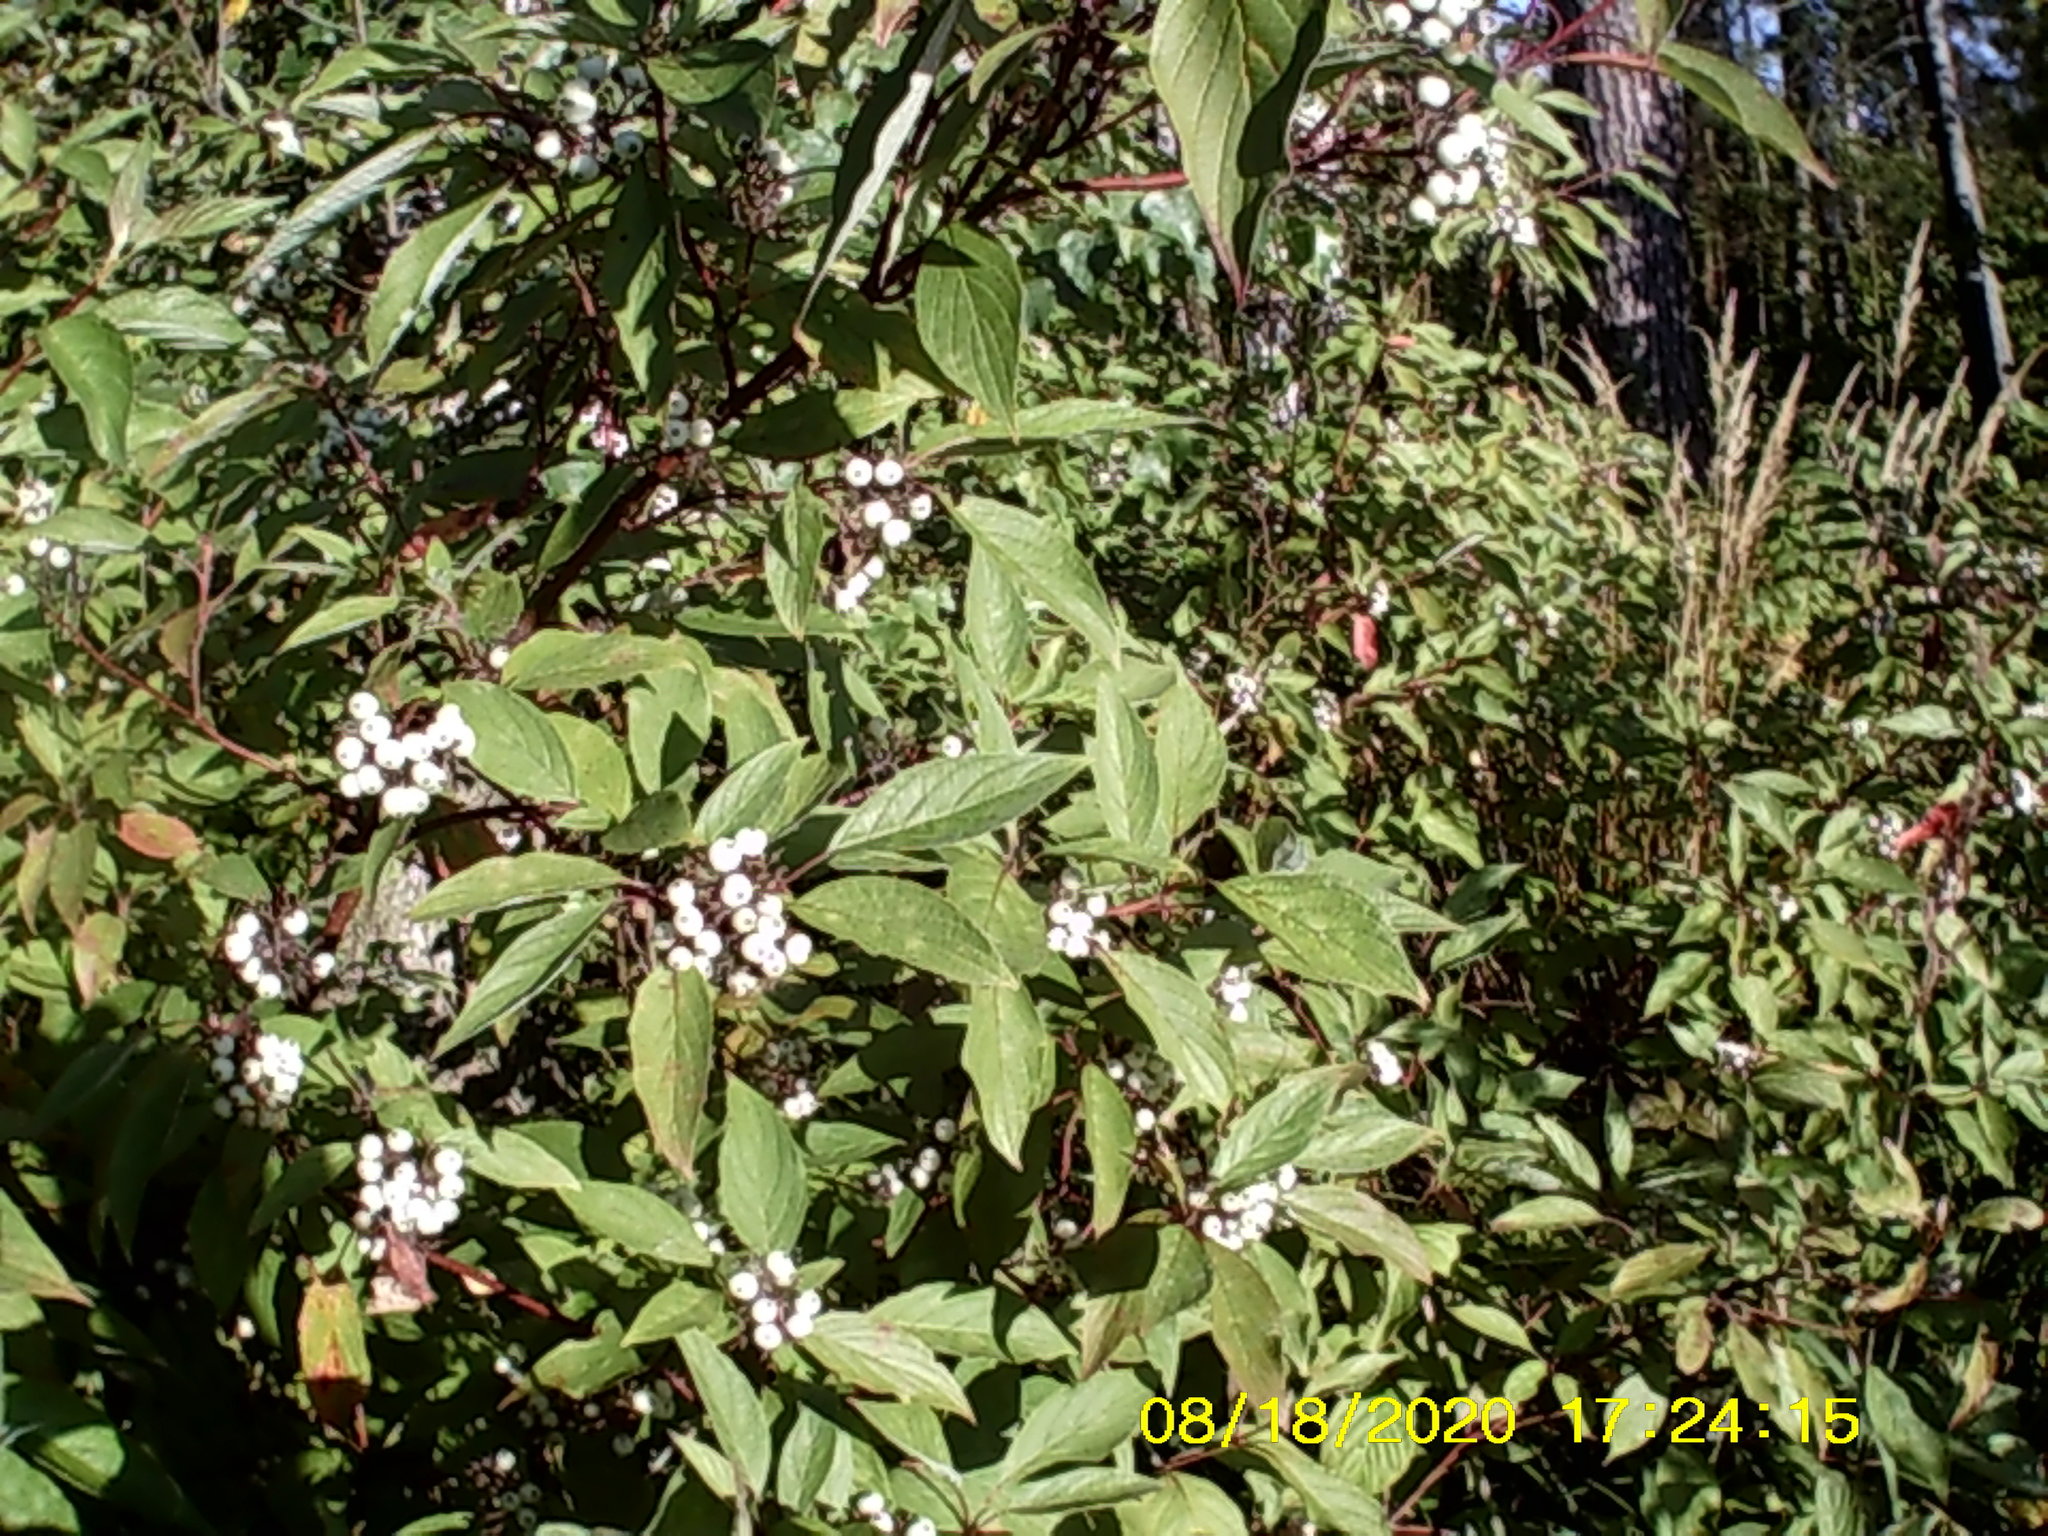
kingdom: Plantae
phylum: Tracheophyta
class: Magnoliopsida
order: Cornales
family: Cornaceae
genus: Cornus
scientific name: Cornus alba
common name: White dogwood
